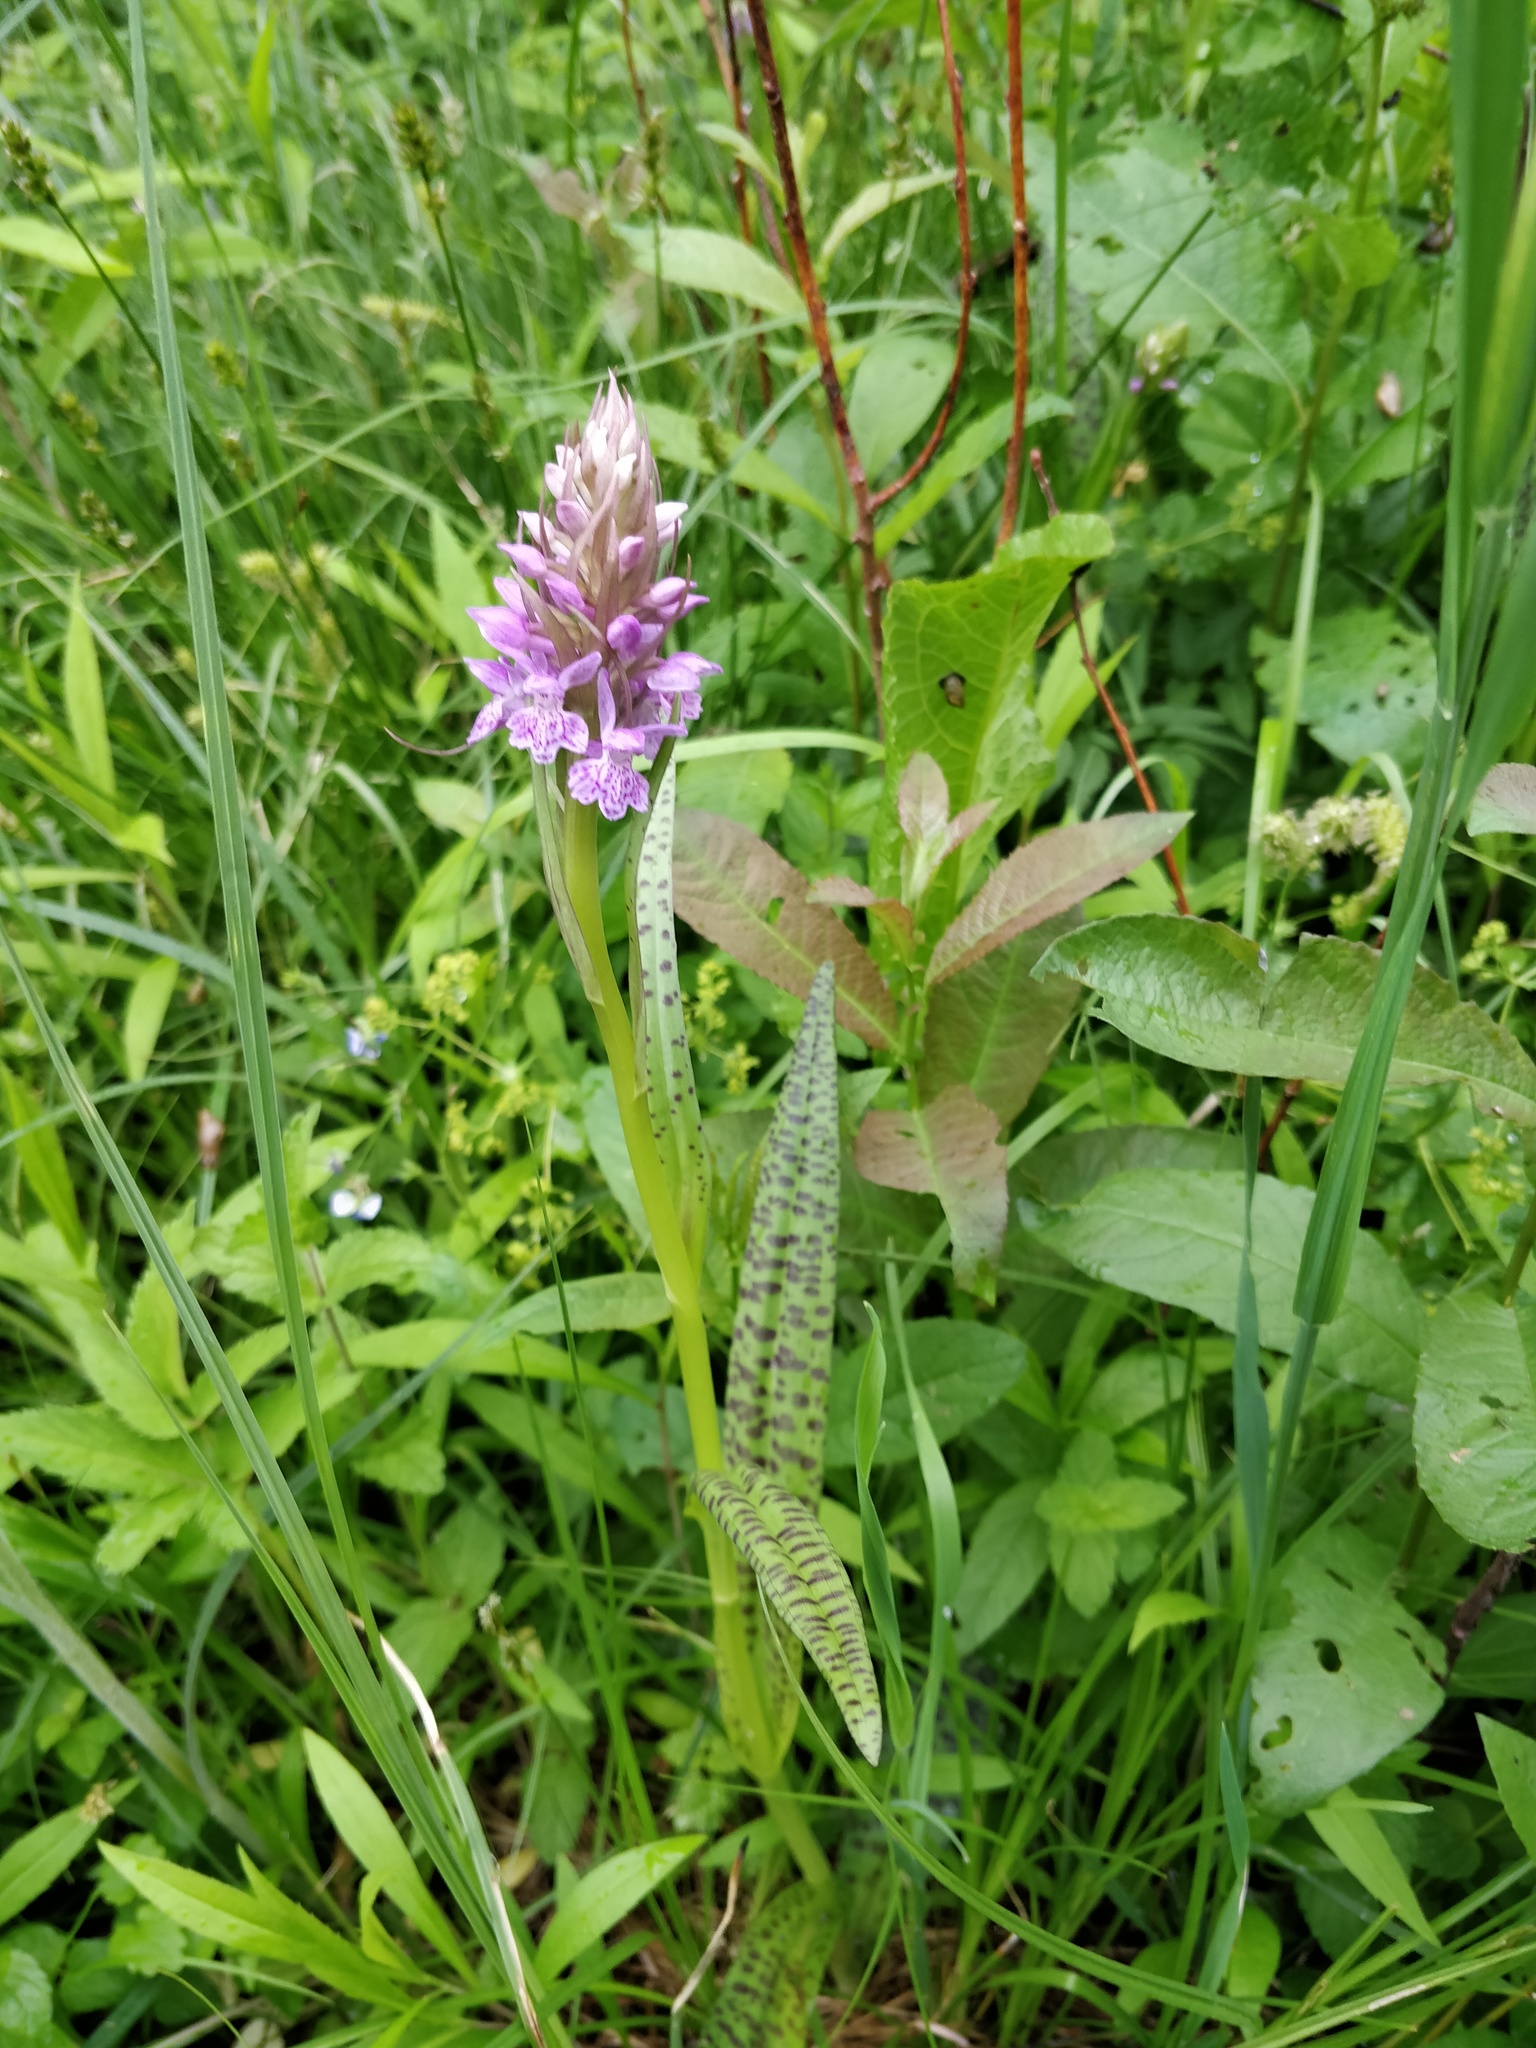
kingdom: Plantae
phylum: Tracheophyta
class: Liliopsida
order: Asparagales
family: Orchidaceae
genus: Dactylorhiza
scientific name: Dactylorhiza majalis
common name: Marsh orchid
